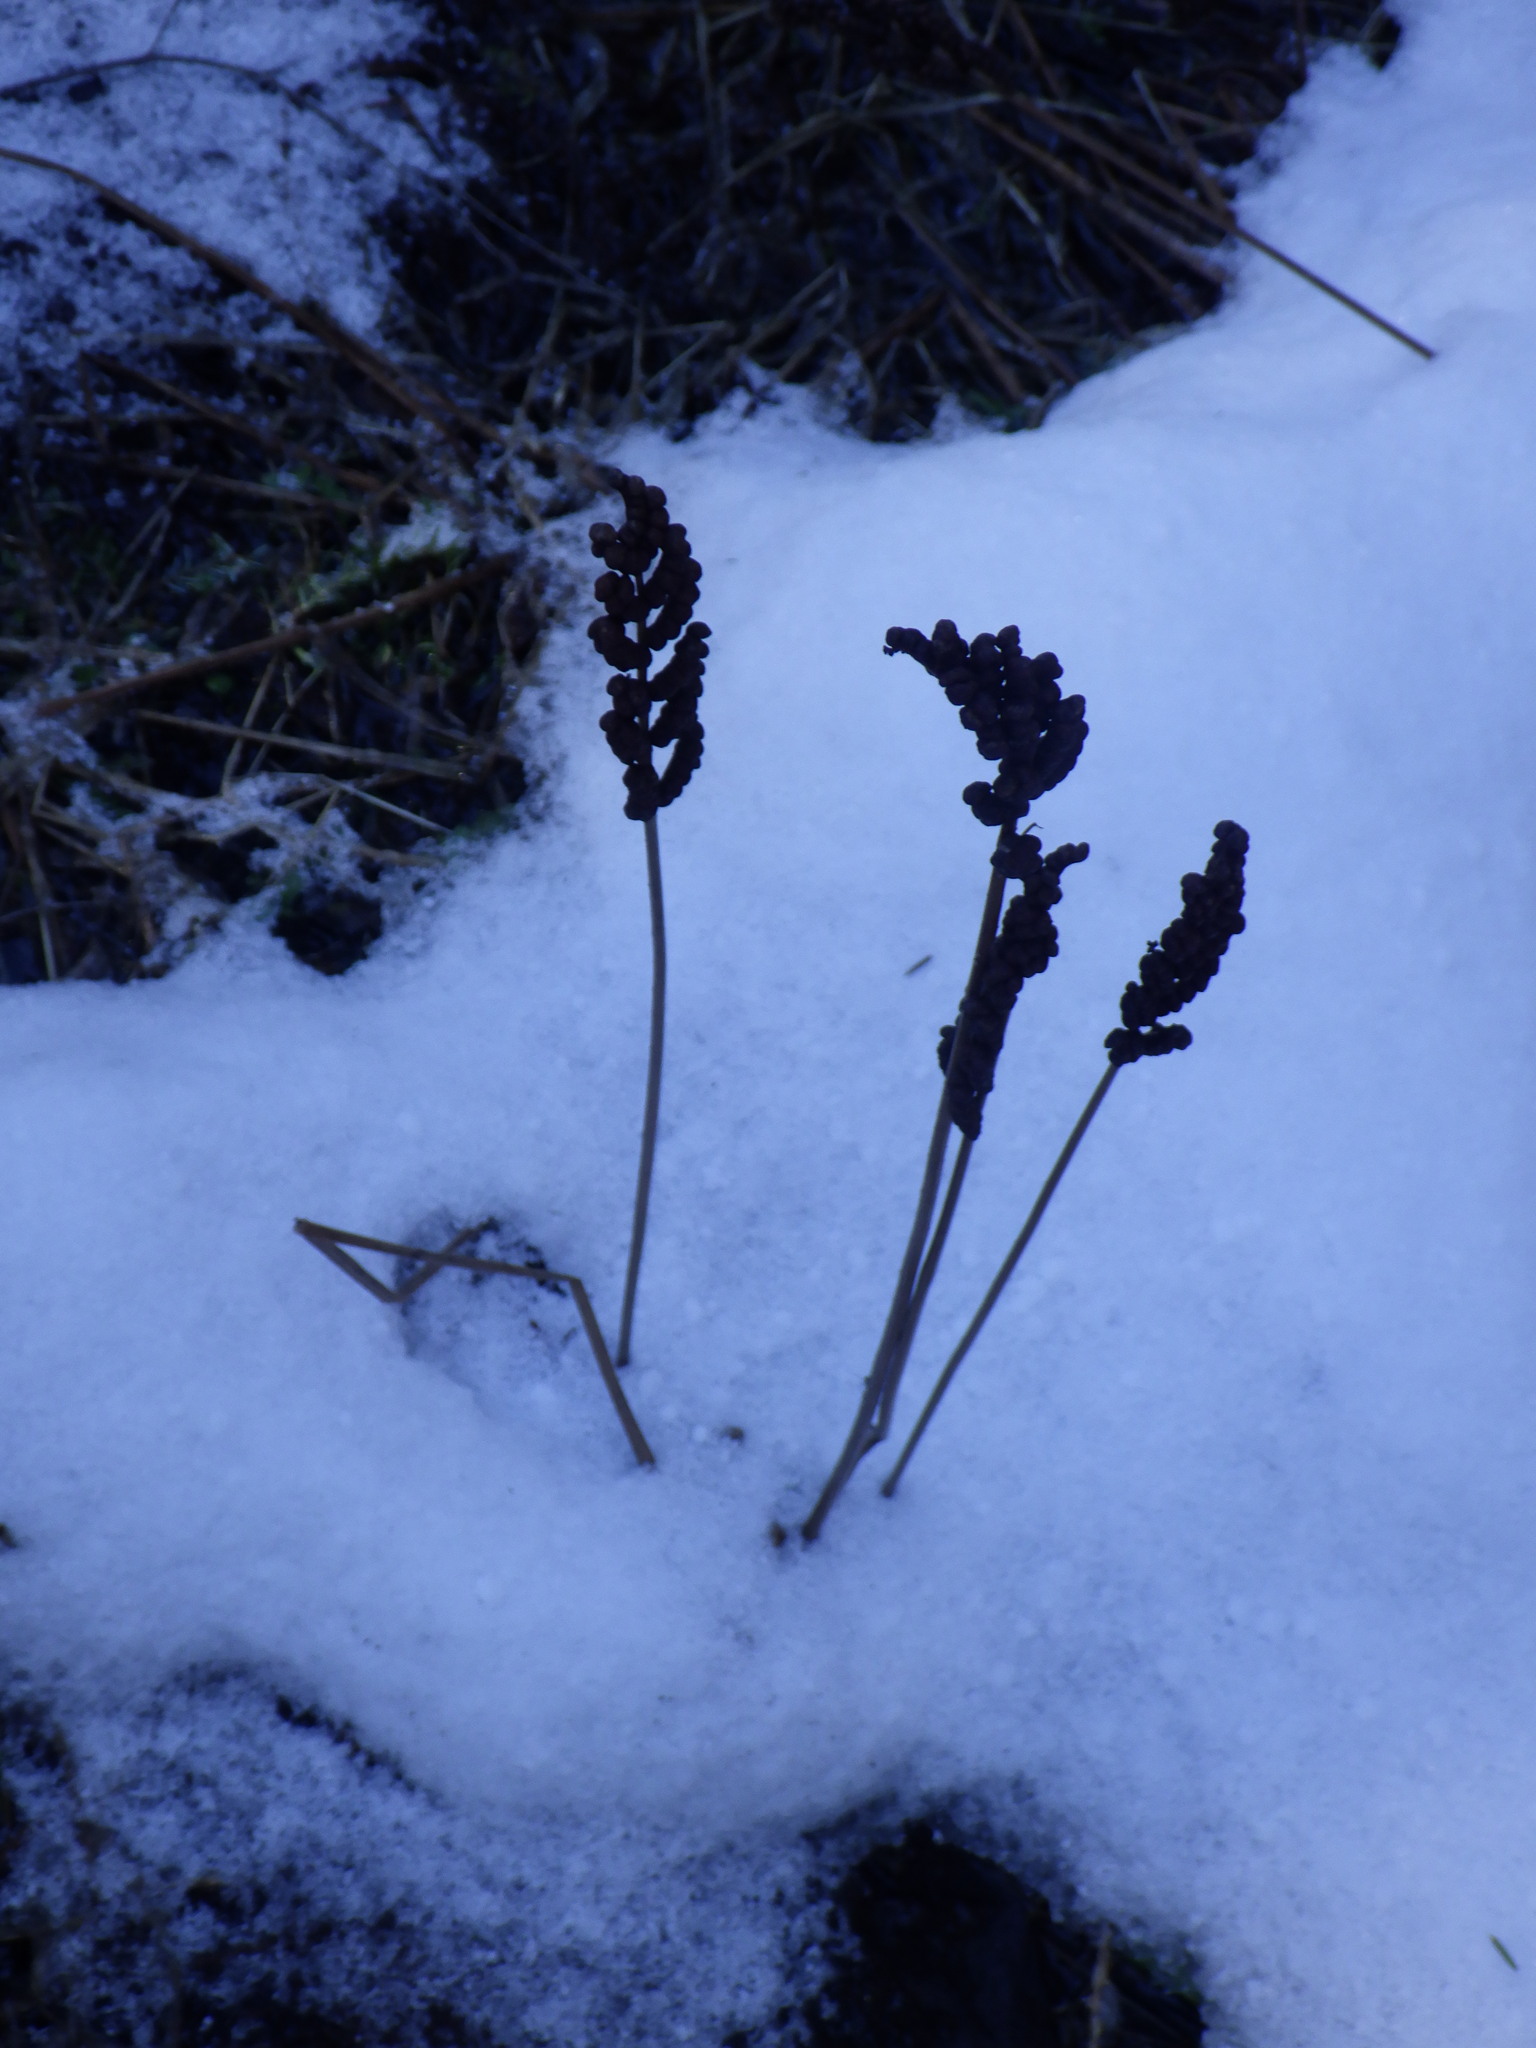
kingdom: Plantae
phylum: Tracheophyta
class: Polypodiopsida
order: Polypodiales
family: Onocleaceae
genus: Onoclea
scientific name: Onoclea sensibilis
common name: Sensitive fern
